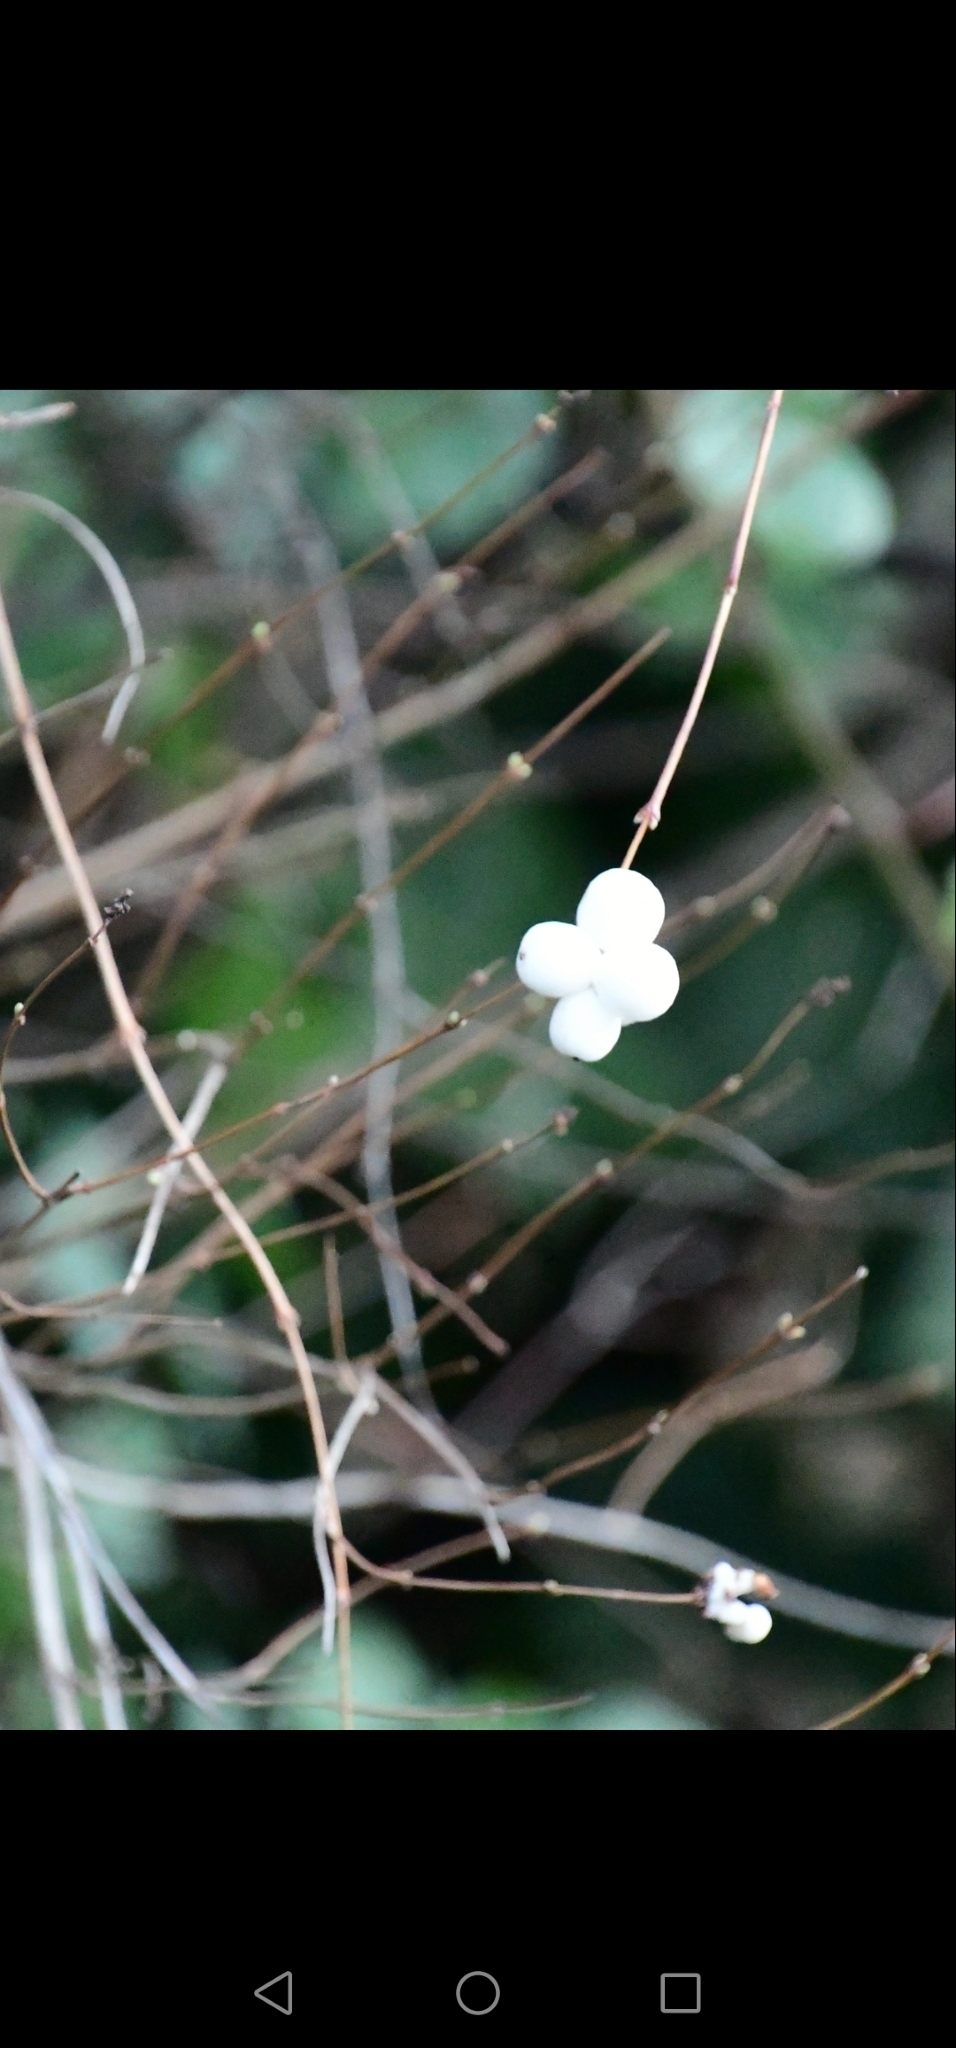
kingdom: Plantae
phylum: Tracheophyta
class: Magnoliopsida
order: Dipsacales
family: Caprifoliaceae
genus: Symphoricarpos
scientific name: Symphoricarpos albus
